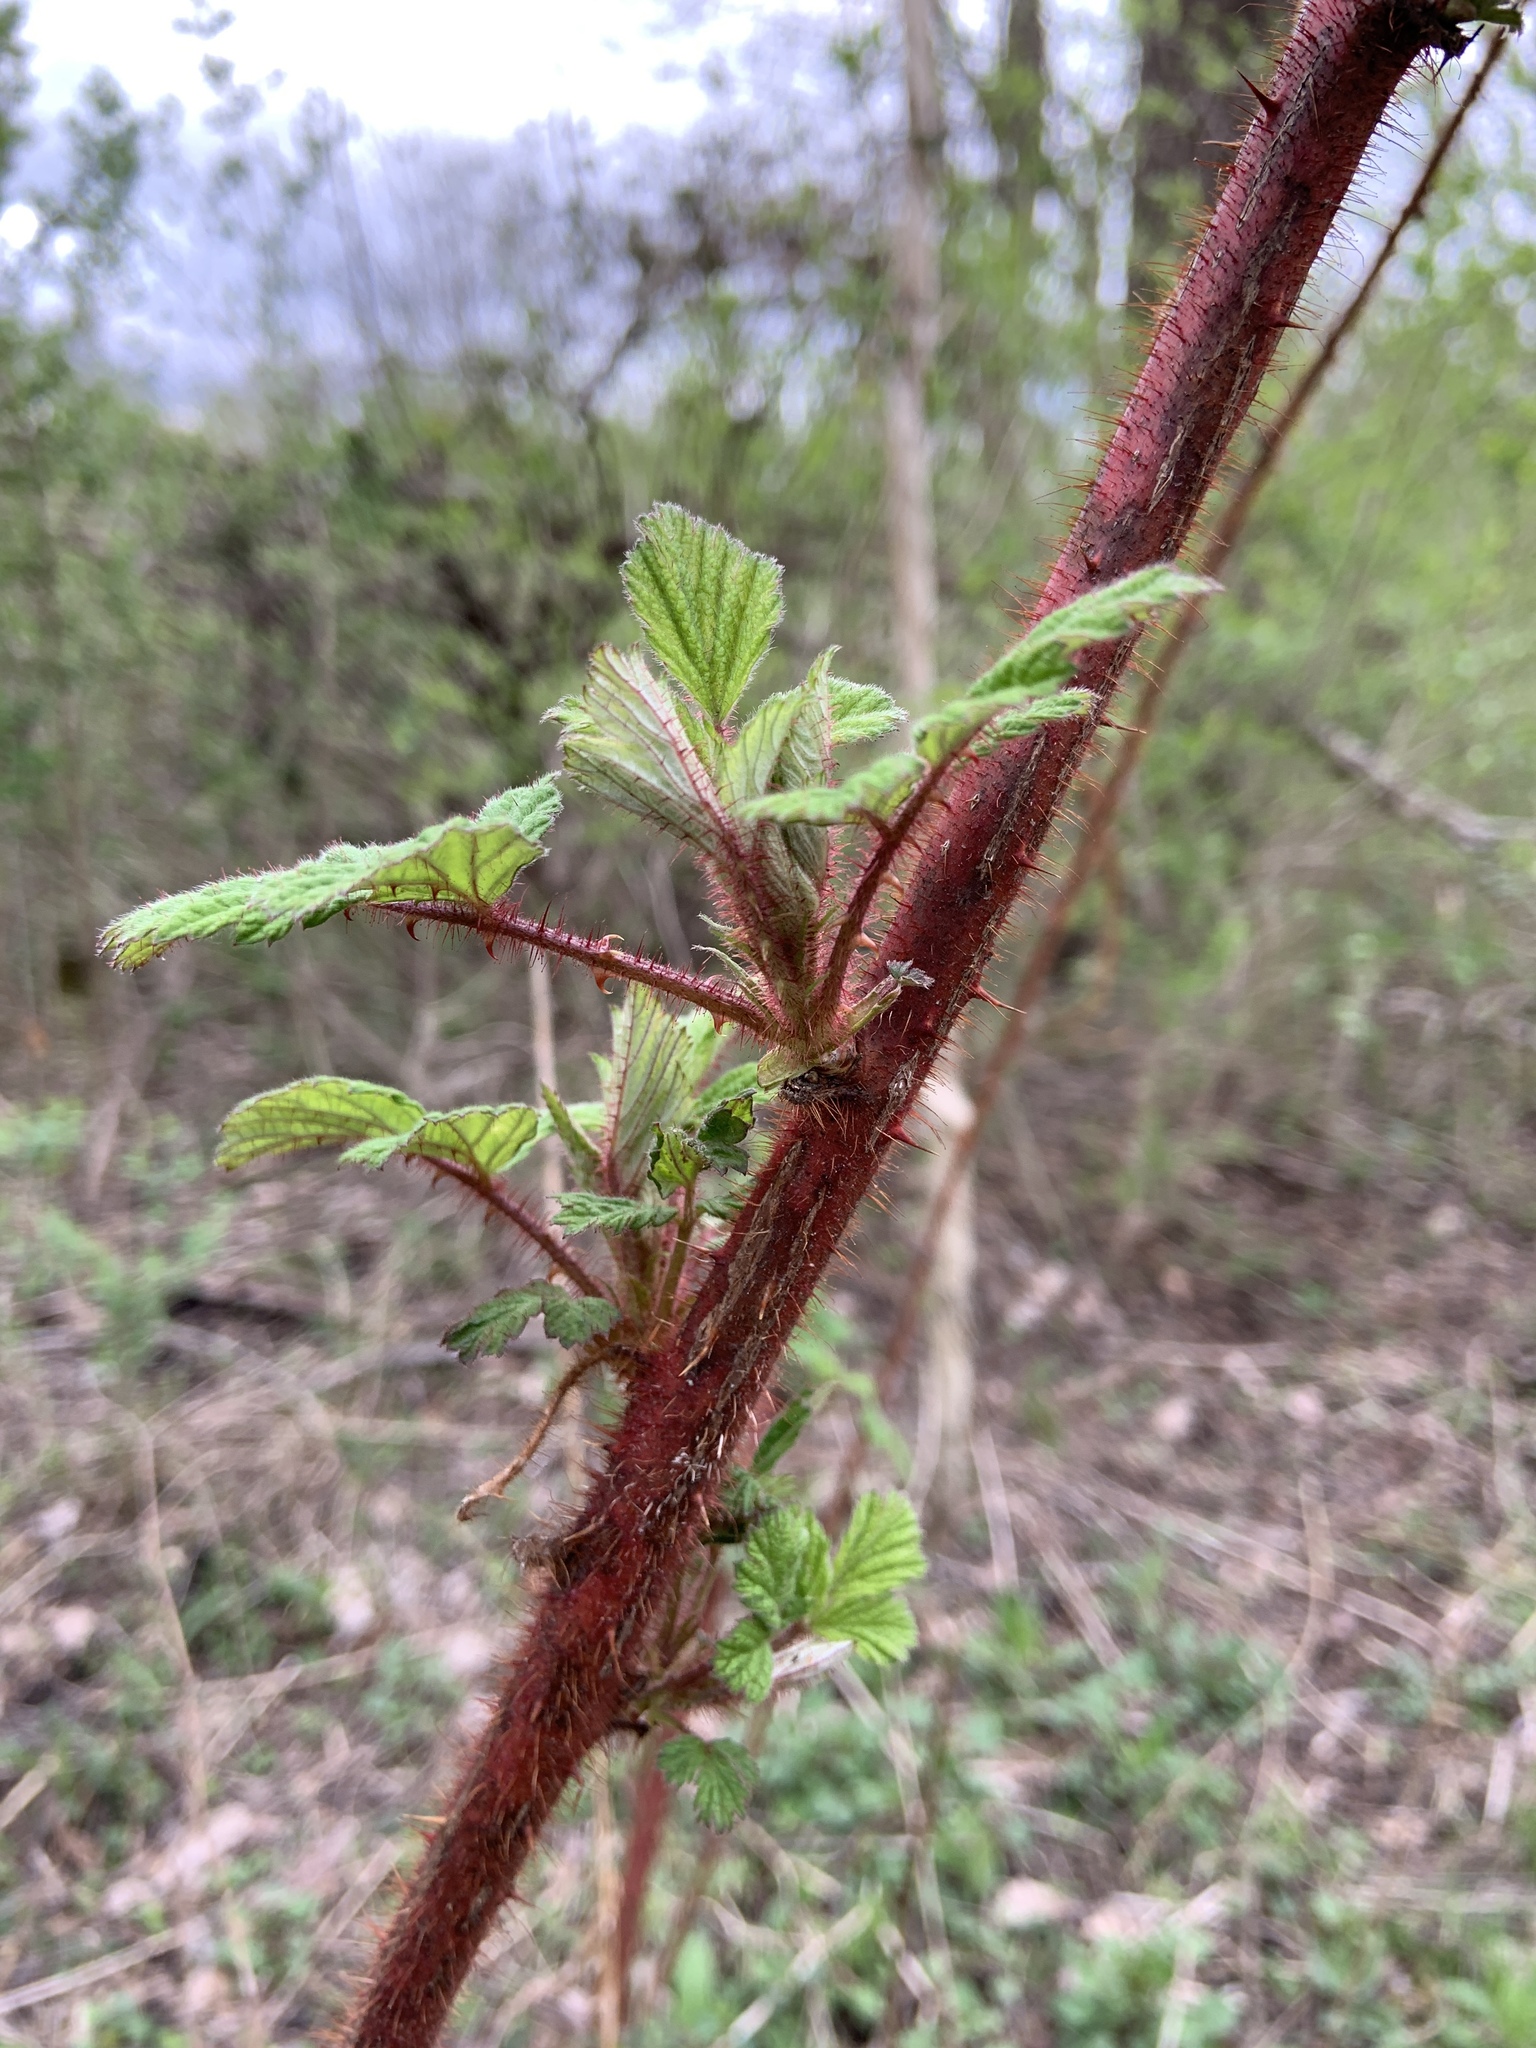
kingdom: Plantae
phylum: Tracheophyta
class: Magnoliopsida
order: Rosales
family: Rosaceae
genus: Rubus
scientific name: Rubus phoenicolasius
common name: Japanese wineberry
